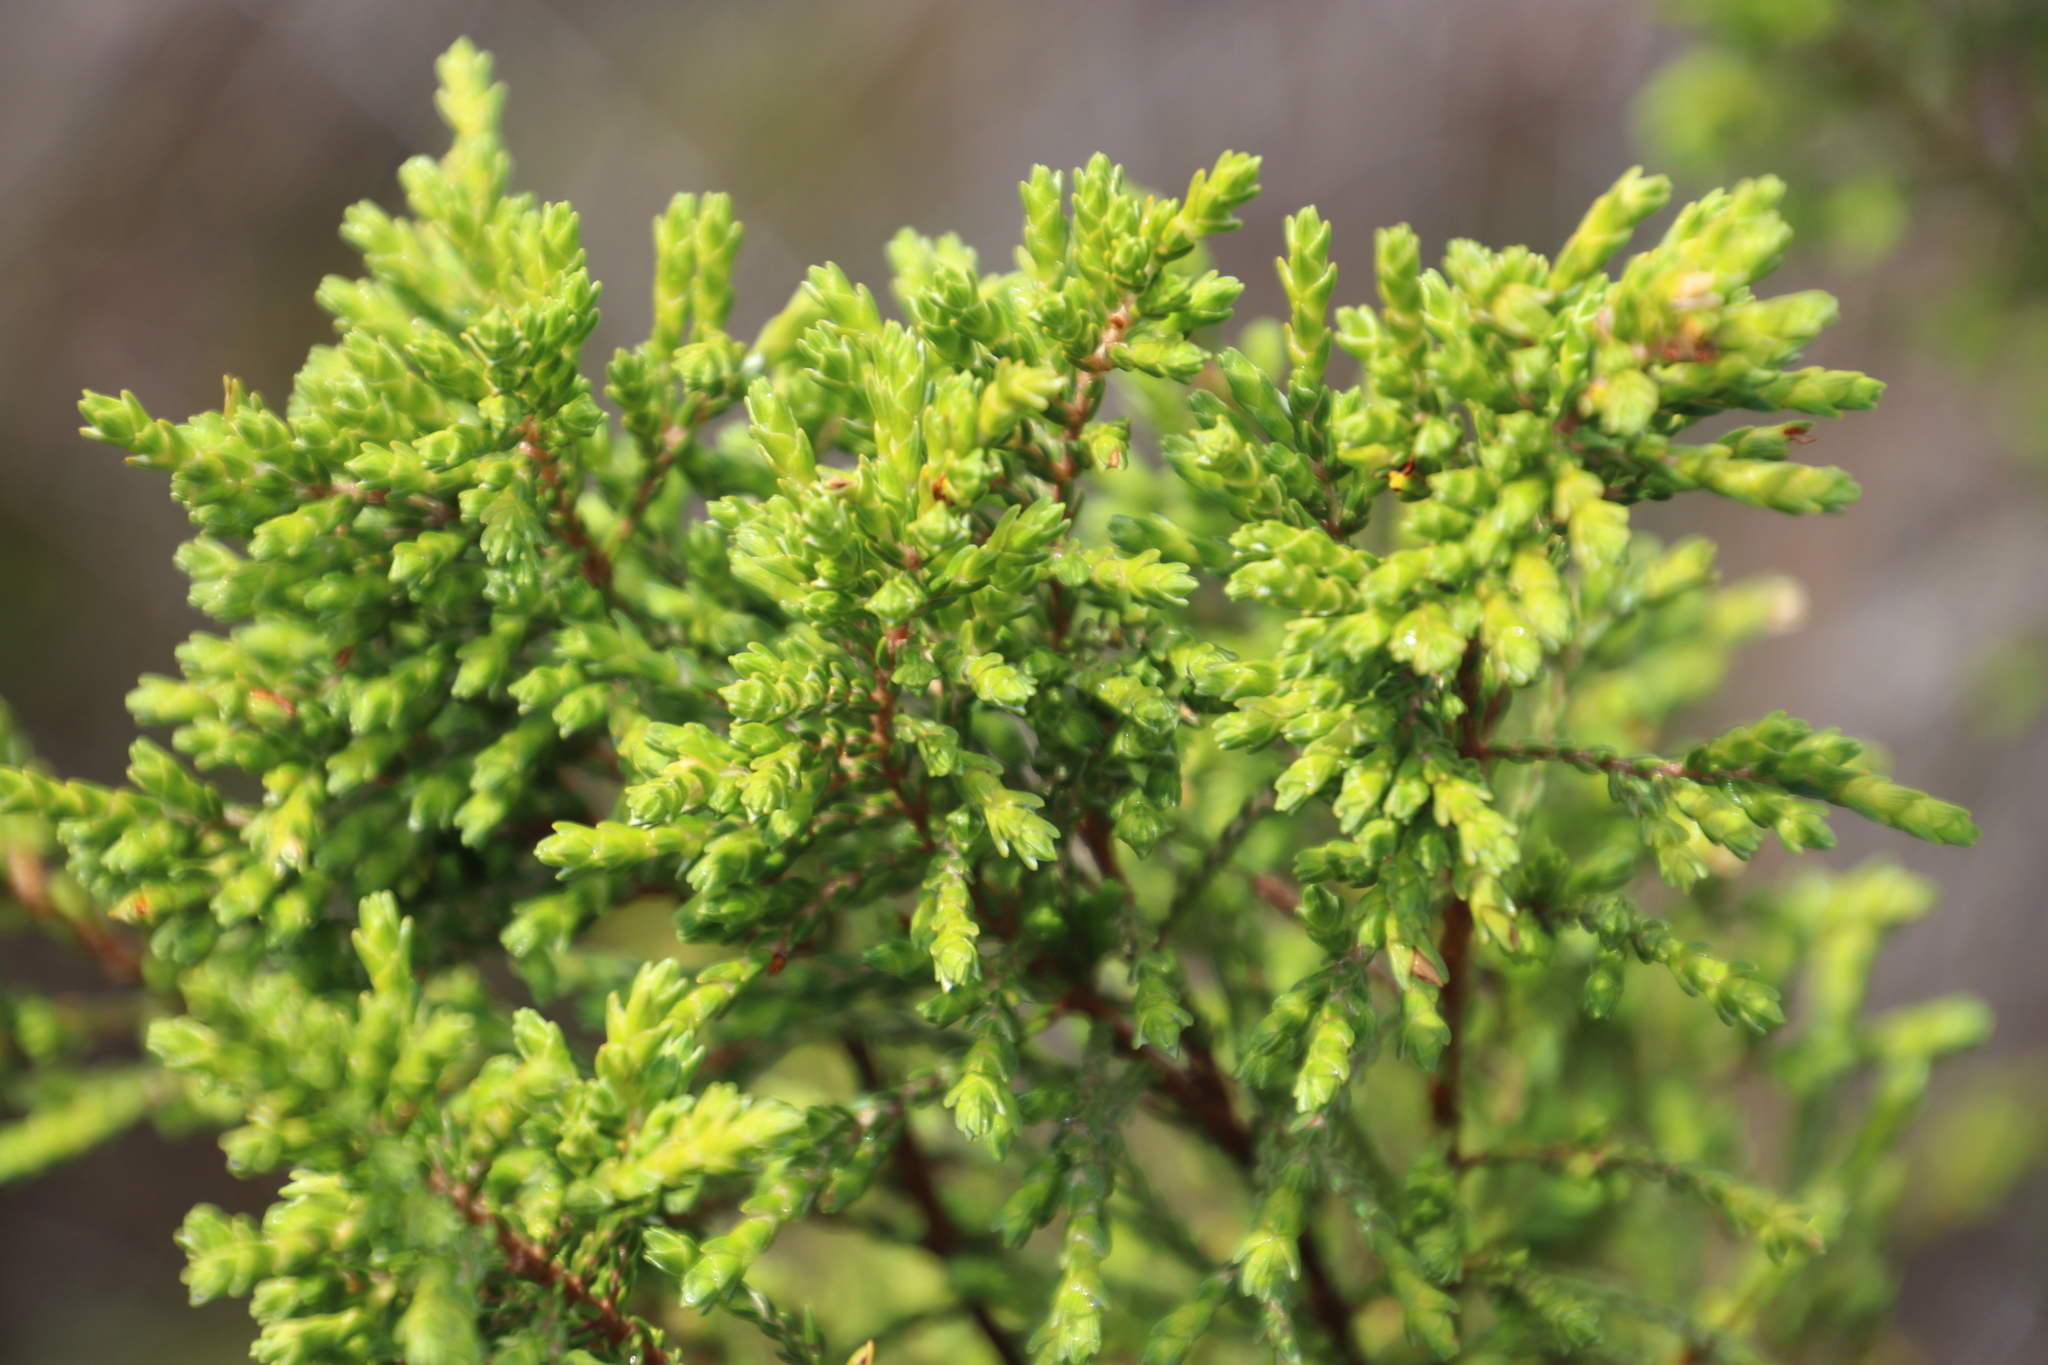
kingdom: Plantae
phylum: Tracheophyta
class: Magnoliopsida
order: Malvales
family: Thymelaeaceae
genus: Passerina
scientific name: Passerina corymbosa
